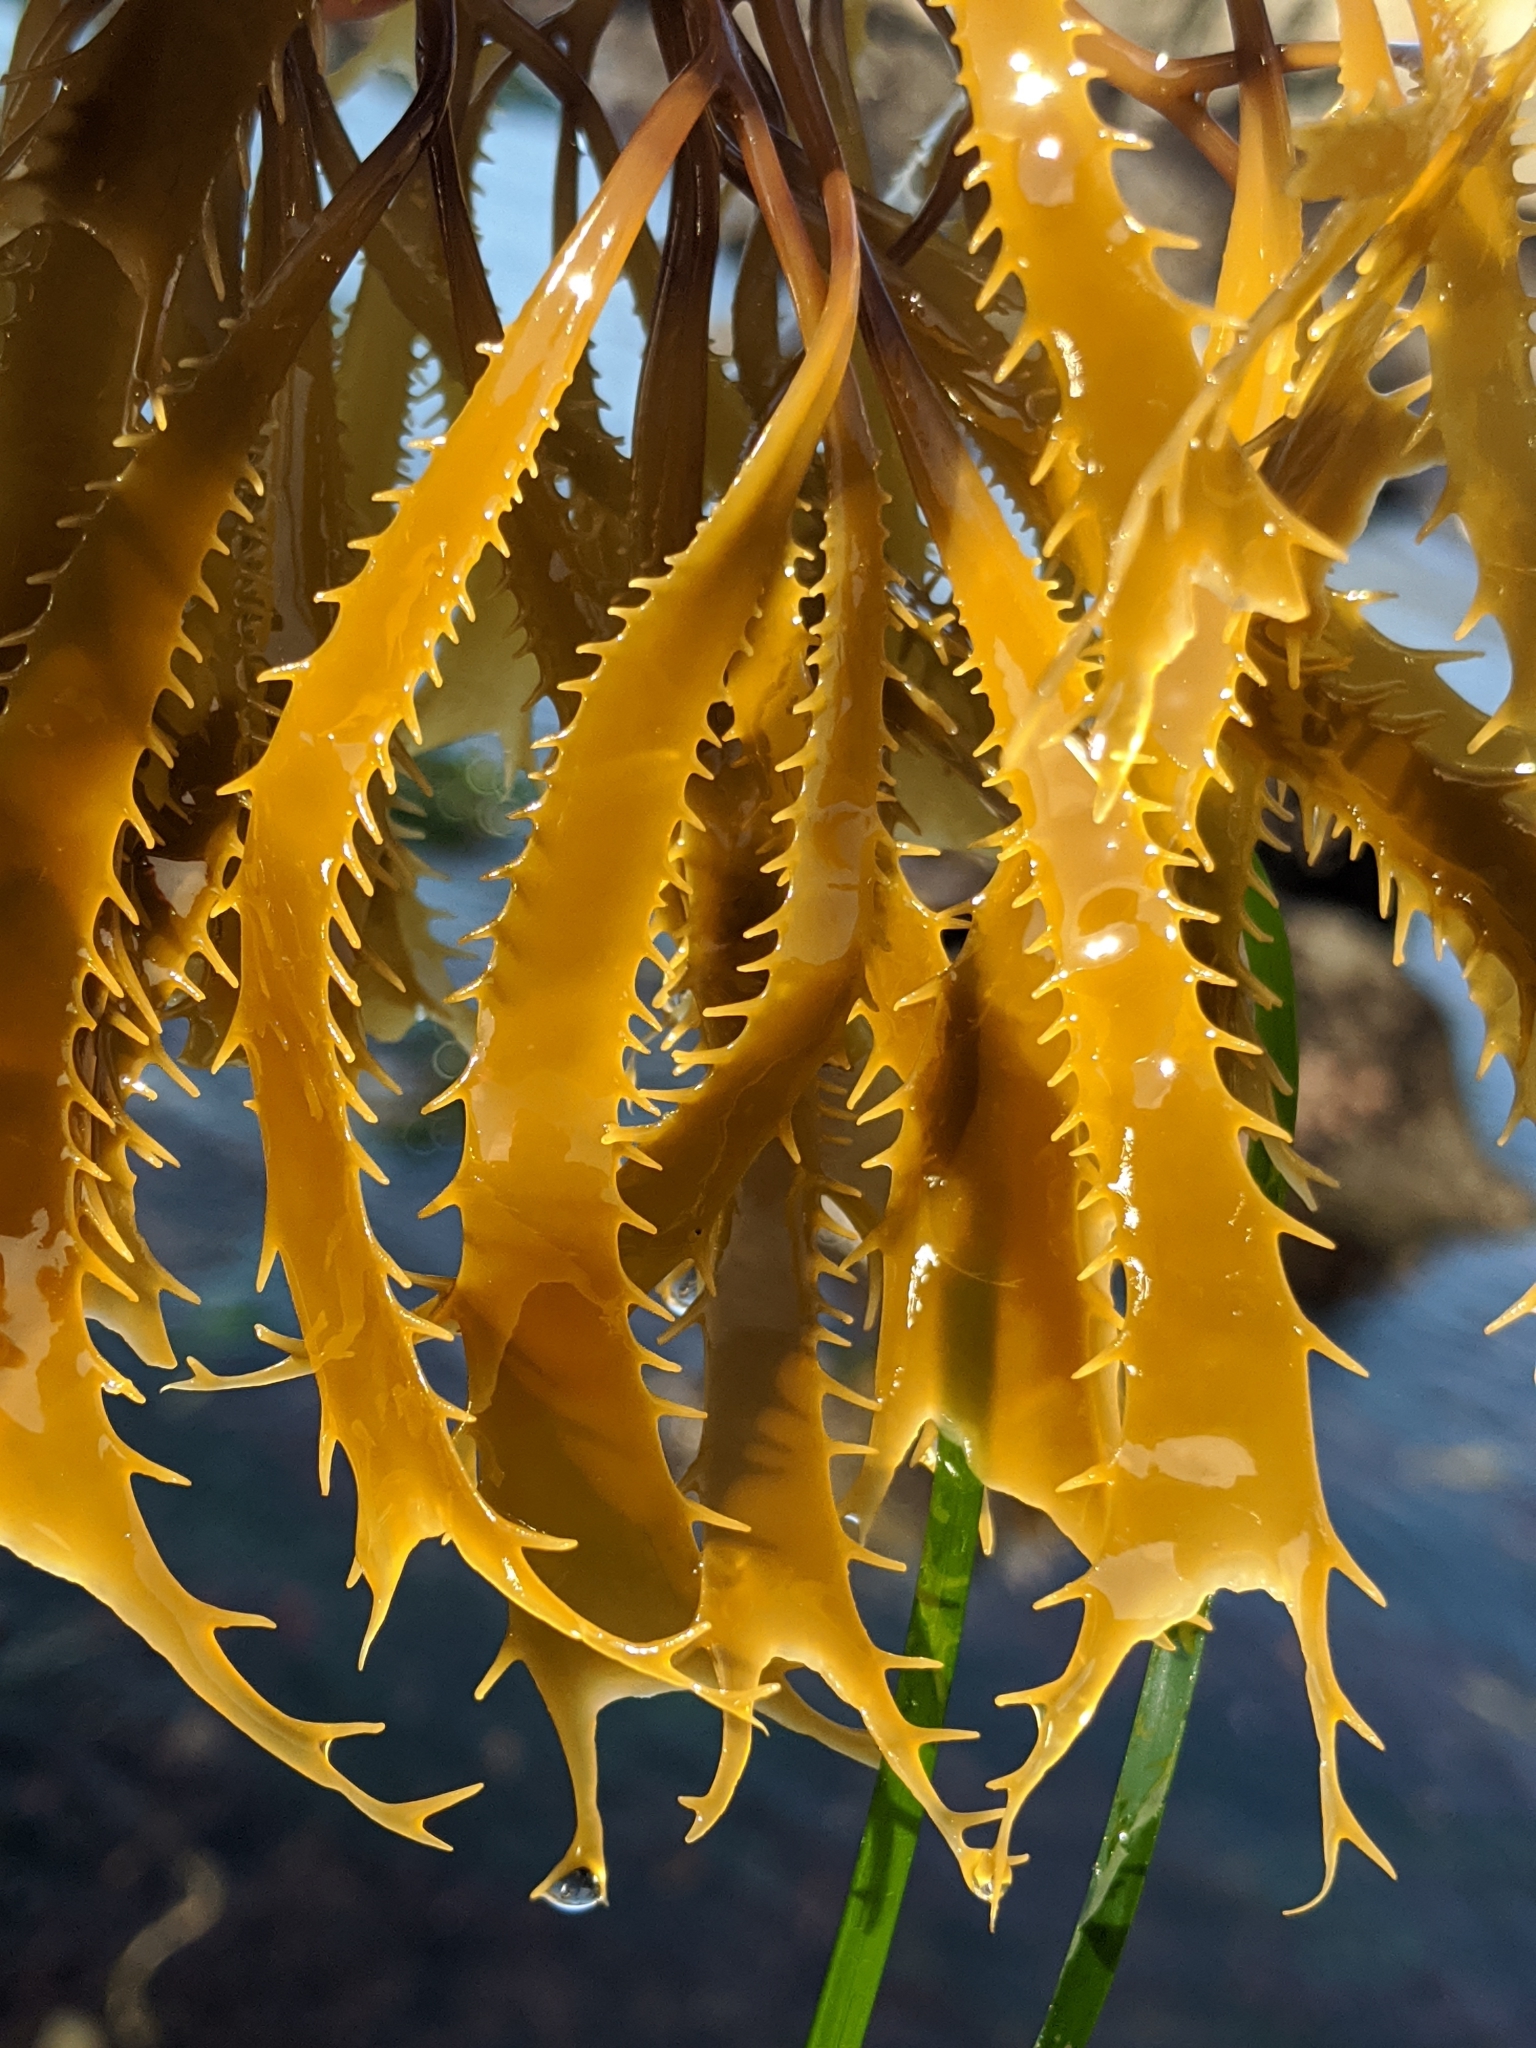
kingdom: Chromista
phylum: Ochrophyta
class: Phaeophyceae
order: Laminariales
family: Laminariaceae
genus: Macrocystis
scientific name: Macrocystis pyrifera
